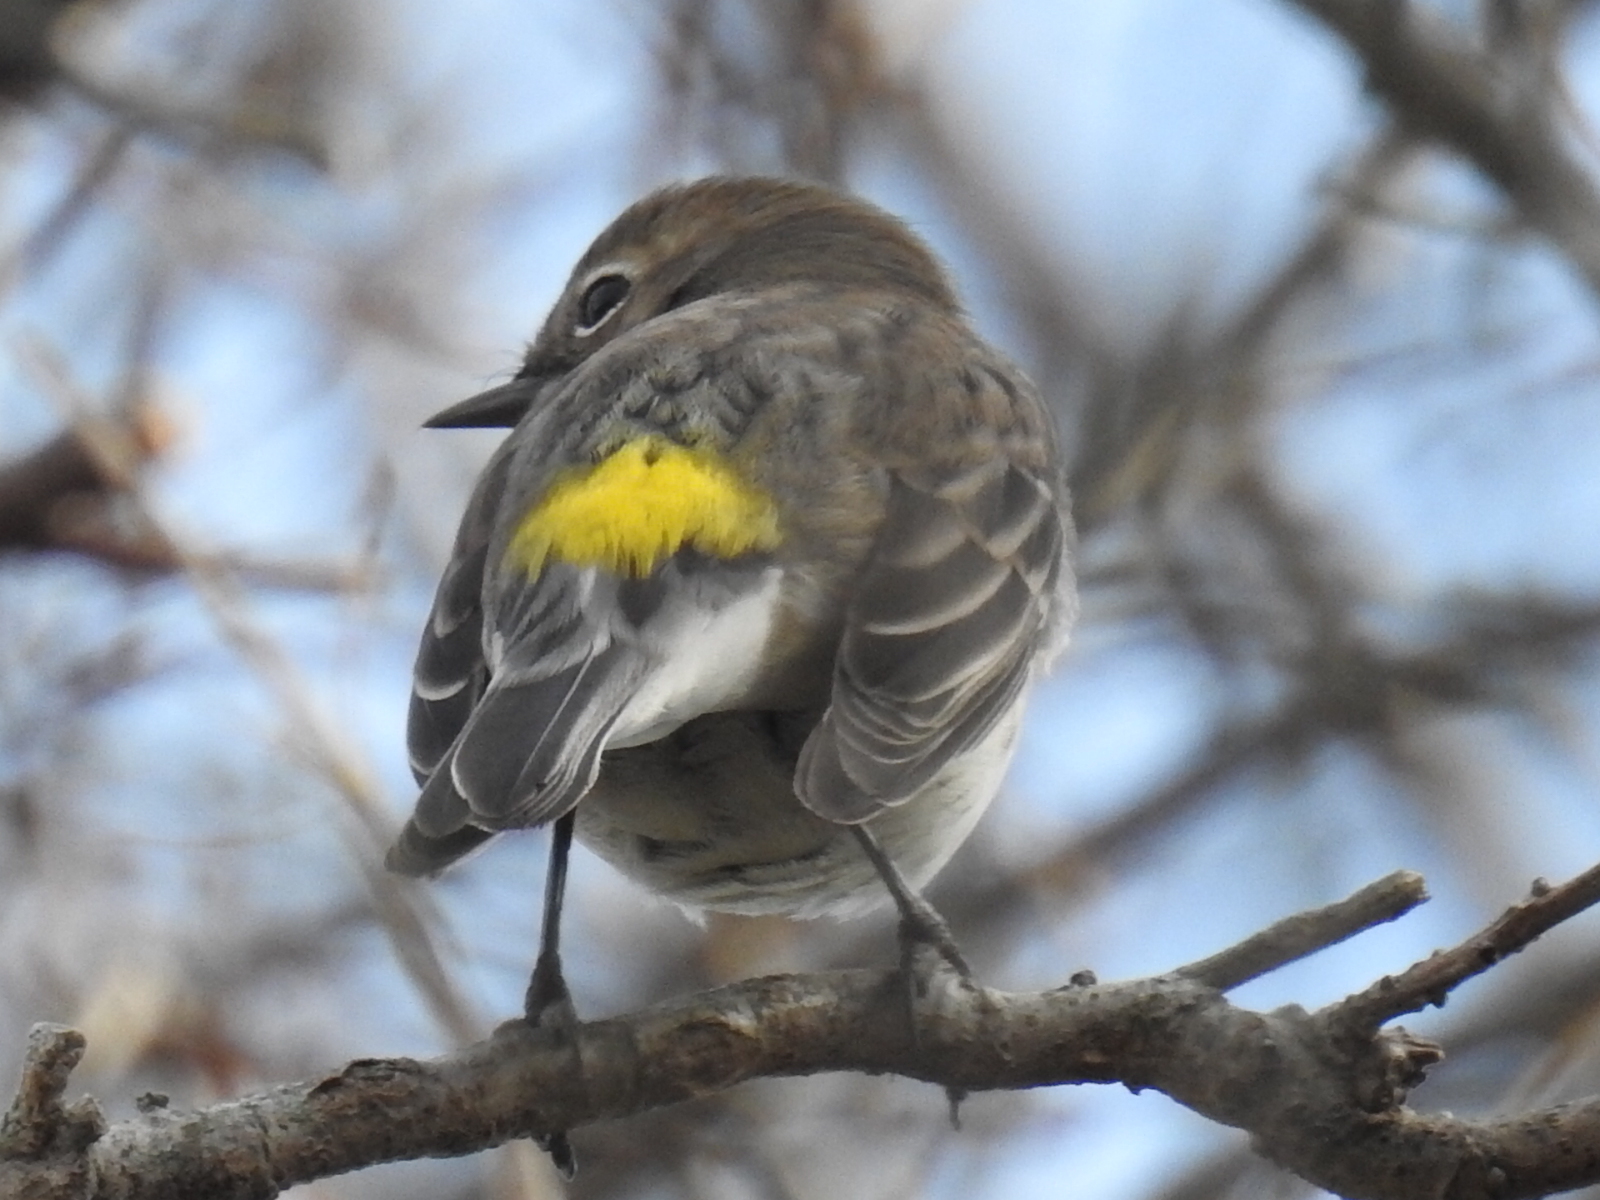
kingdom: Animalia
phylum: Chordata
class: Aves
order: Passeriformes
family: Parulidae
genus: Setophaga
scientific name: Setophaga coronata
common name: Myrtle warbler
